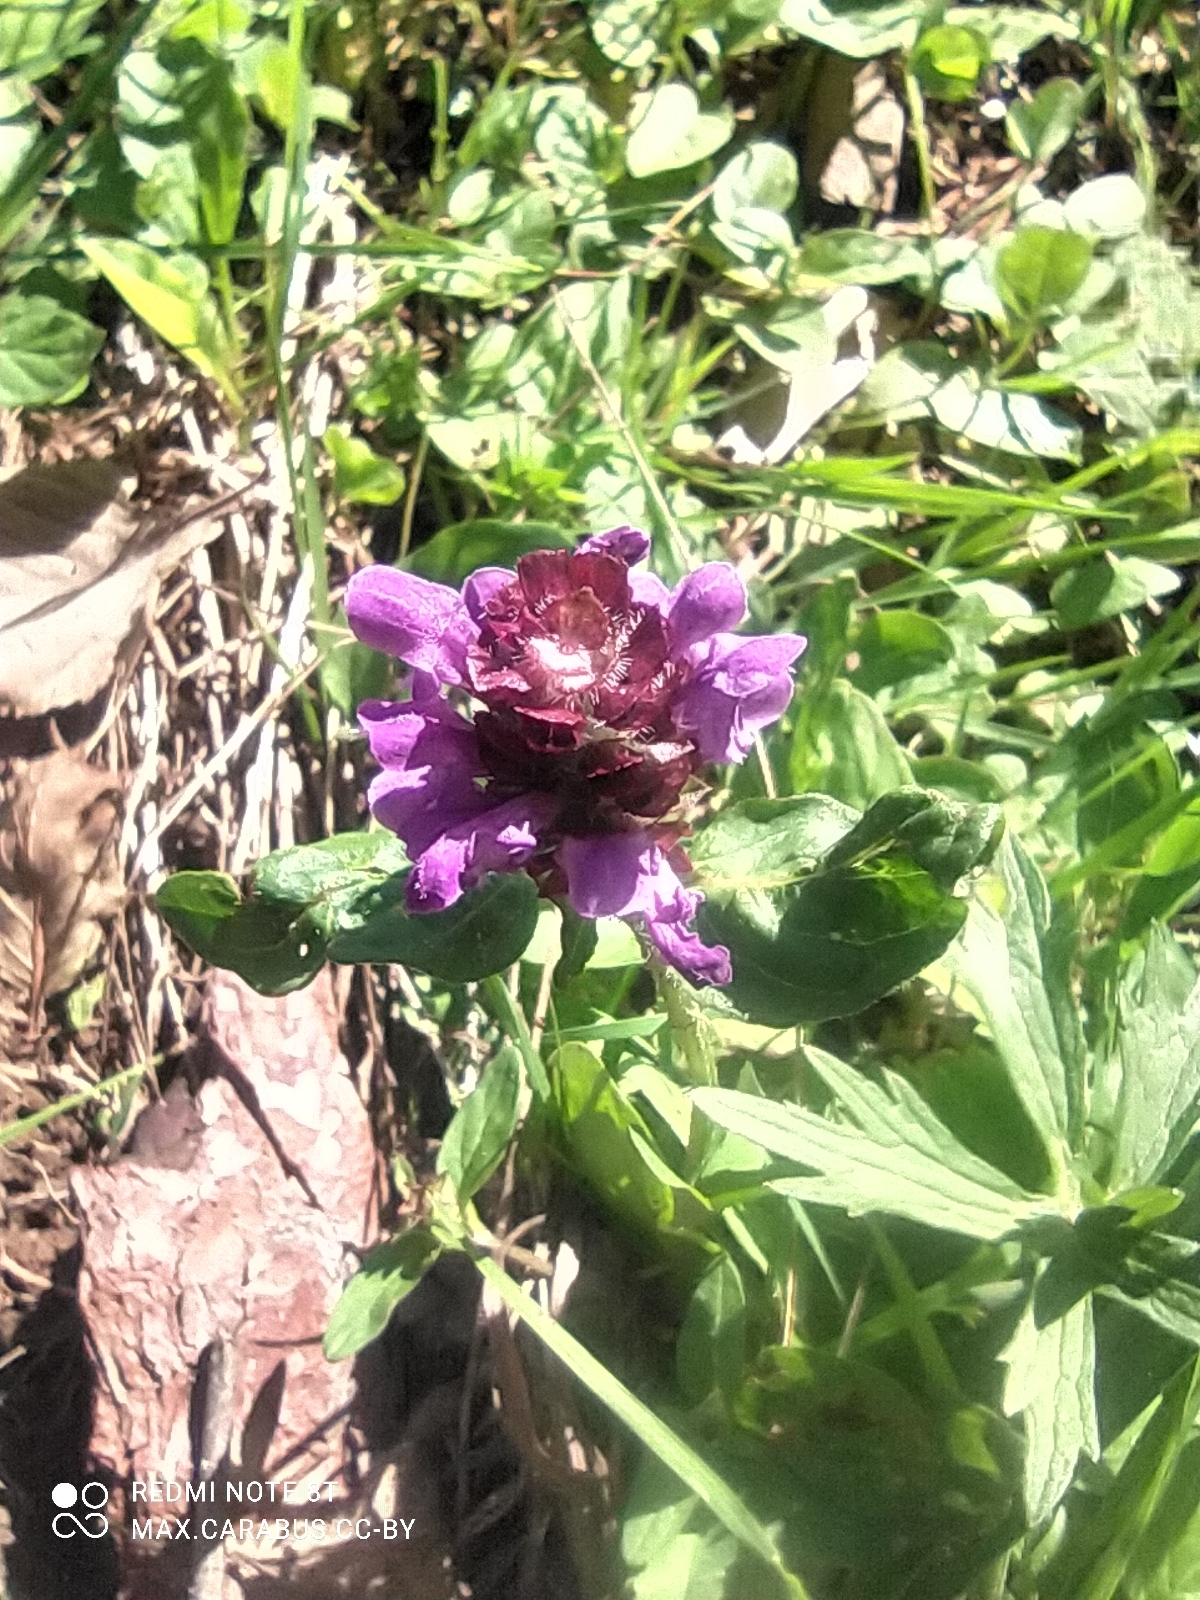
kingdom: Plantae
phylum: Tracheophyta
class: Magnoliopsida
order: Lamiales
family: Lamiaceae
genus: Prunella
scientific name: Prunella vulgaris
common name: Heal-all
